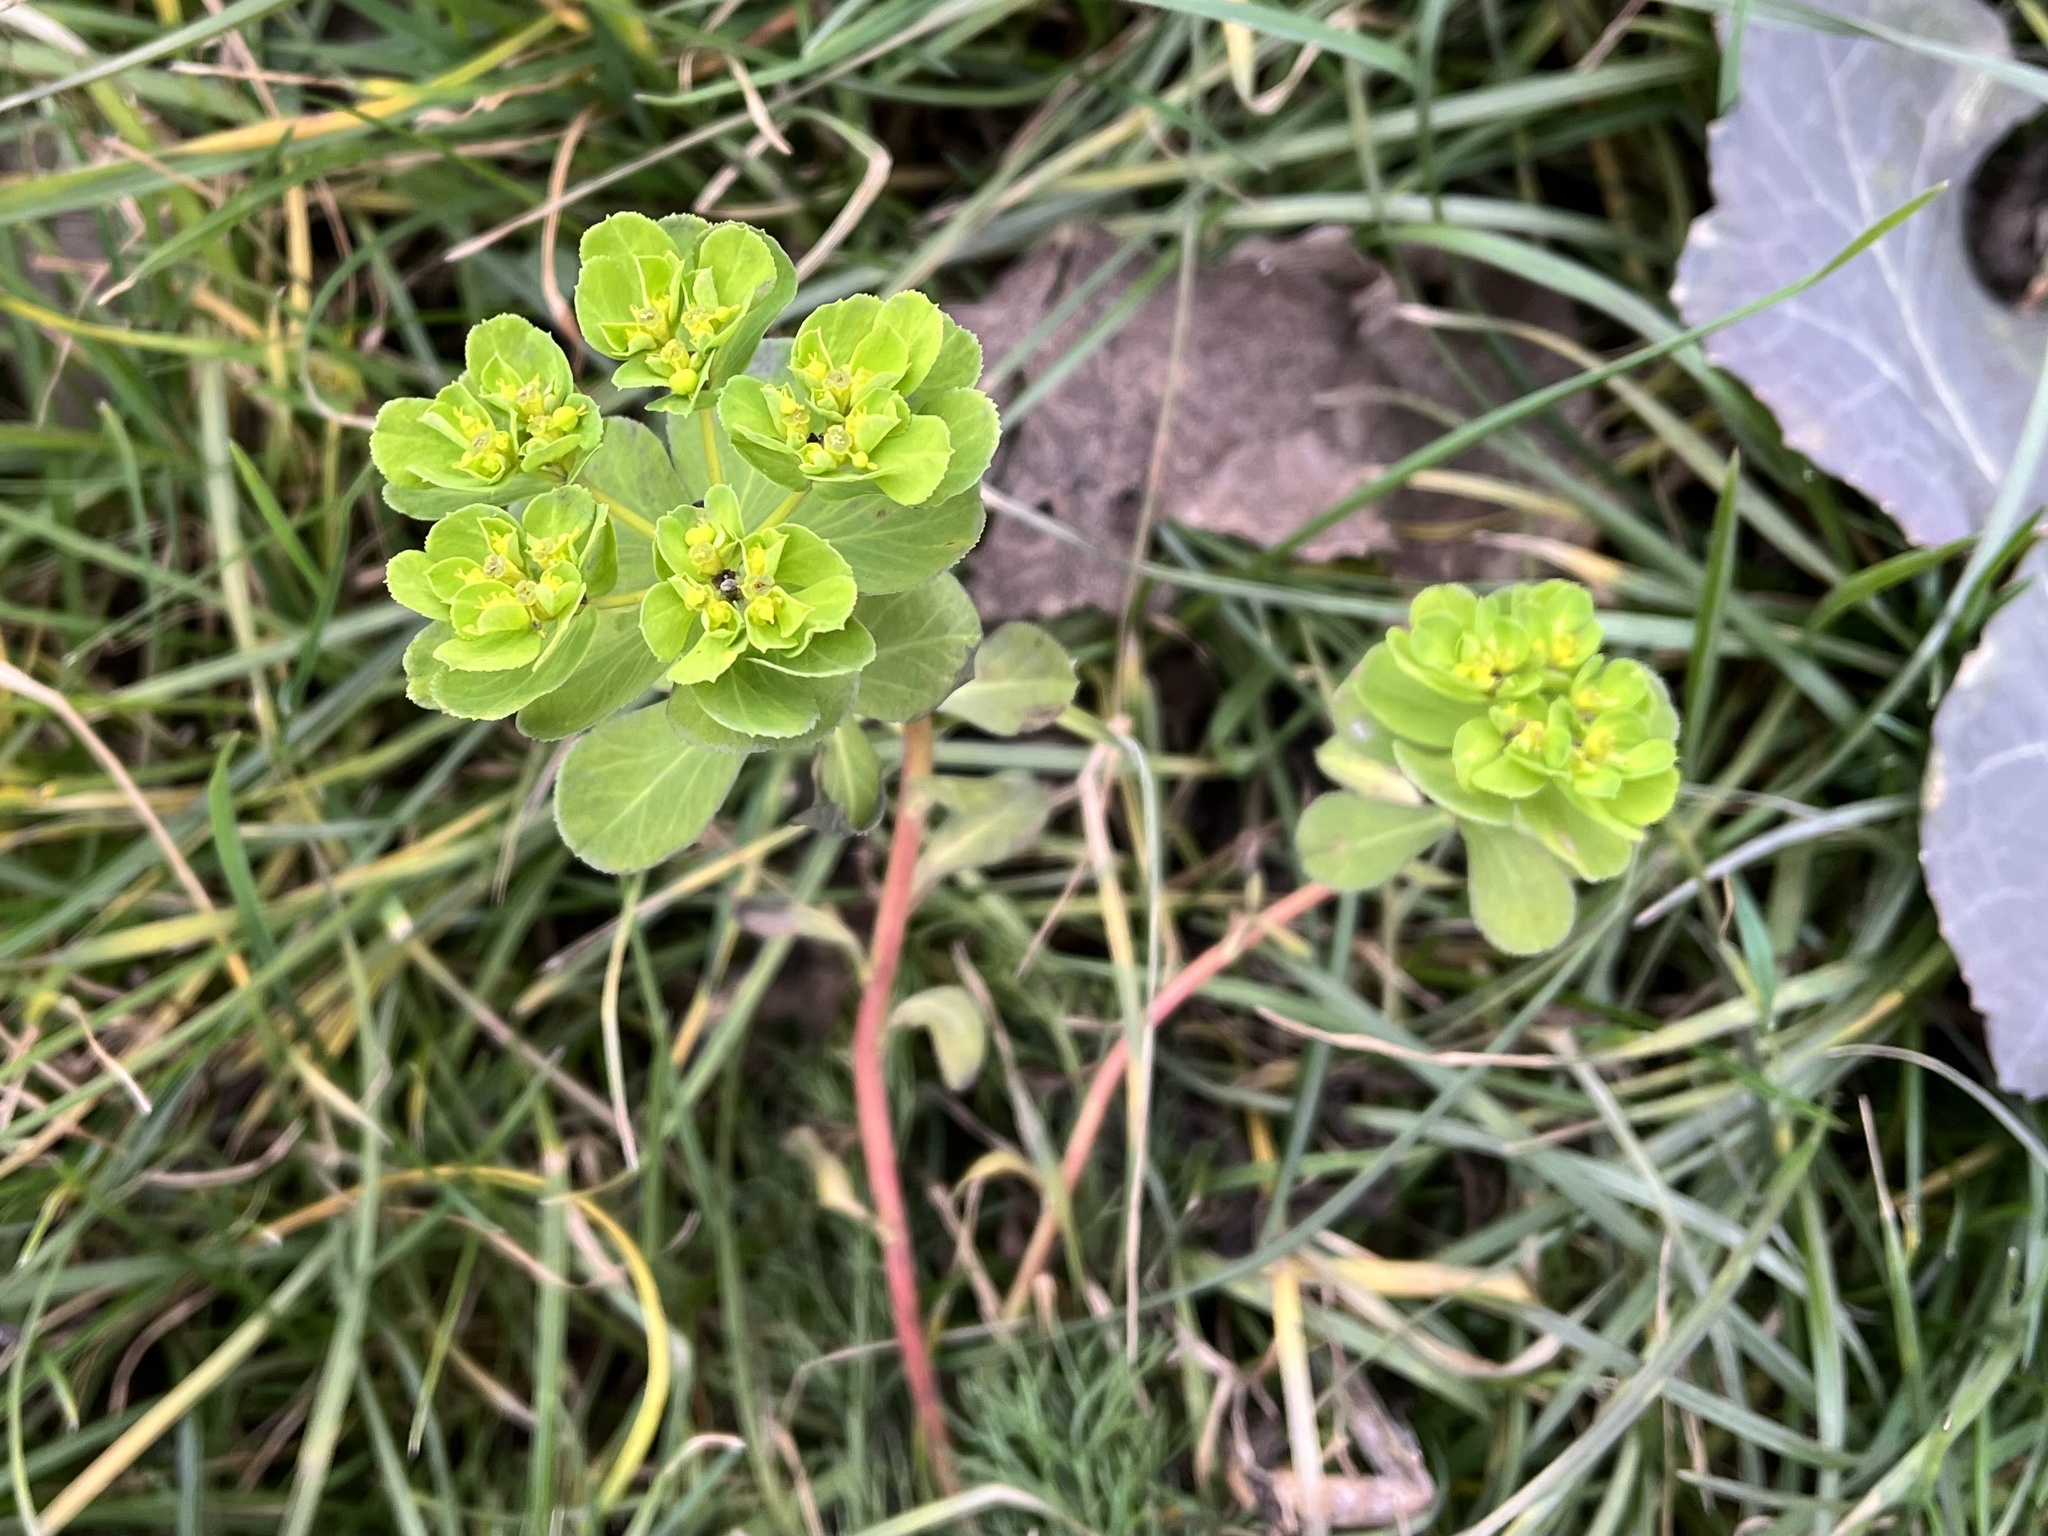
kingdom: Plantae
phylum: Tracheophyta
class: Magnoliopsida
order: Malpighiales
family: Euphorbiaceae
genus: Euphorbia
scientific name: Euphorbia helioscopia
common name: Sun spurge
